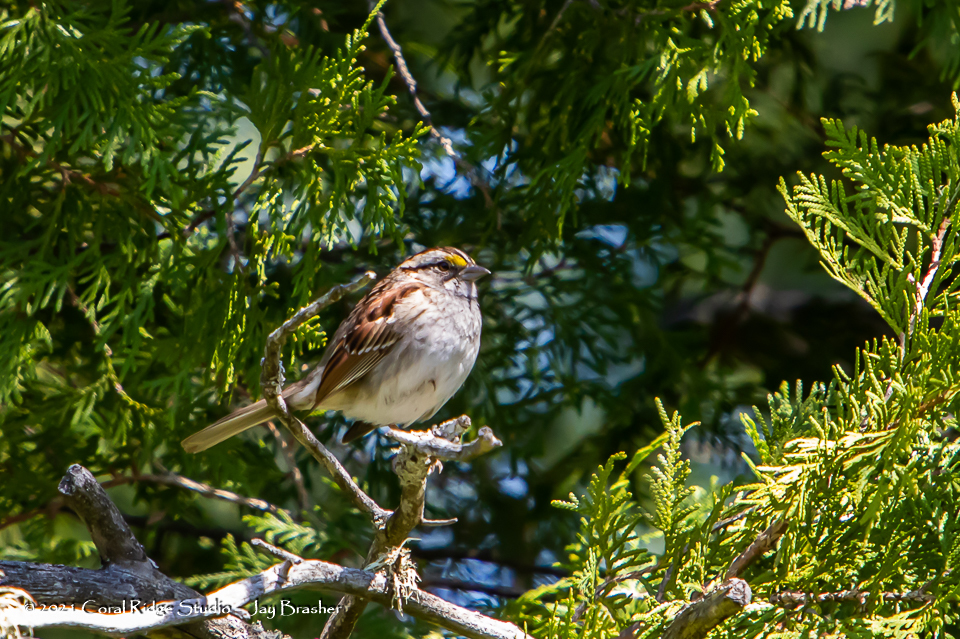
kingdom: Animalia
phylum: Chordata
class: Aves
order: Passeriformes
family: Passerellidae
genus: Zonotrichia
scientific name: Zonotrichia albicollis
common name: White-throated sparrow
